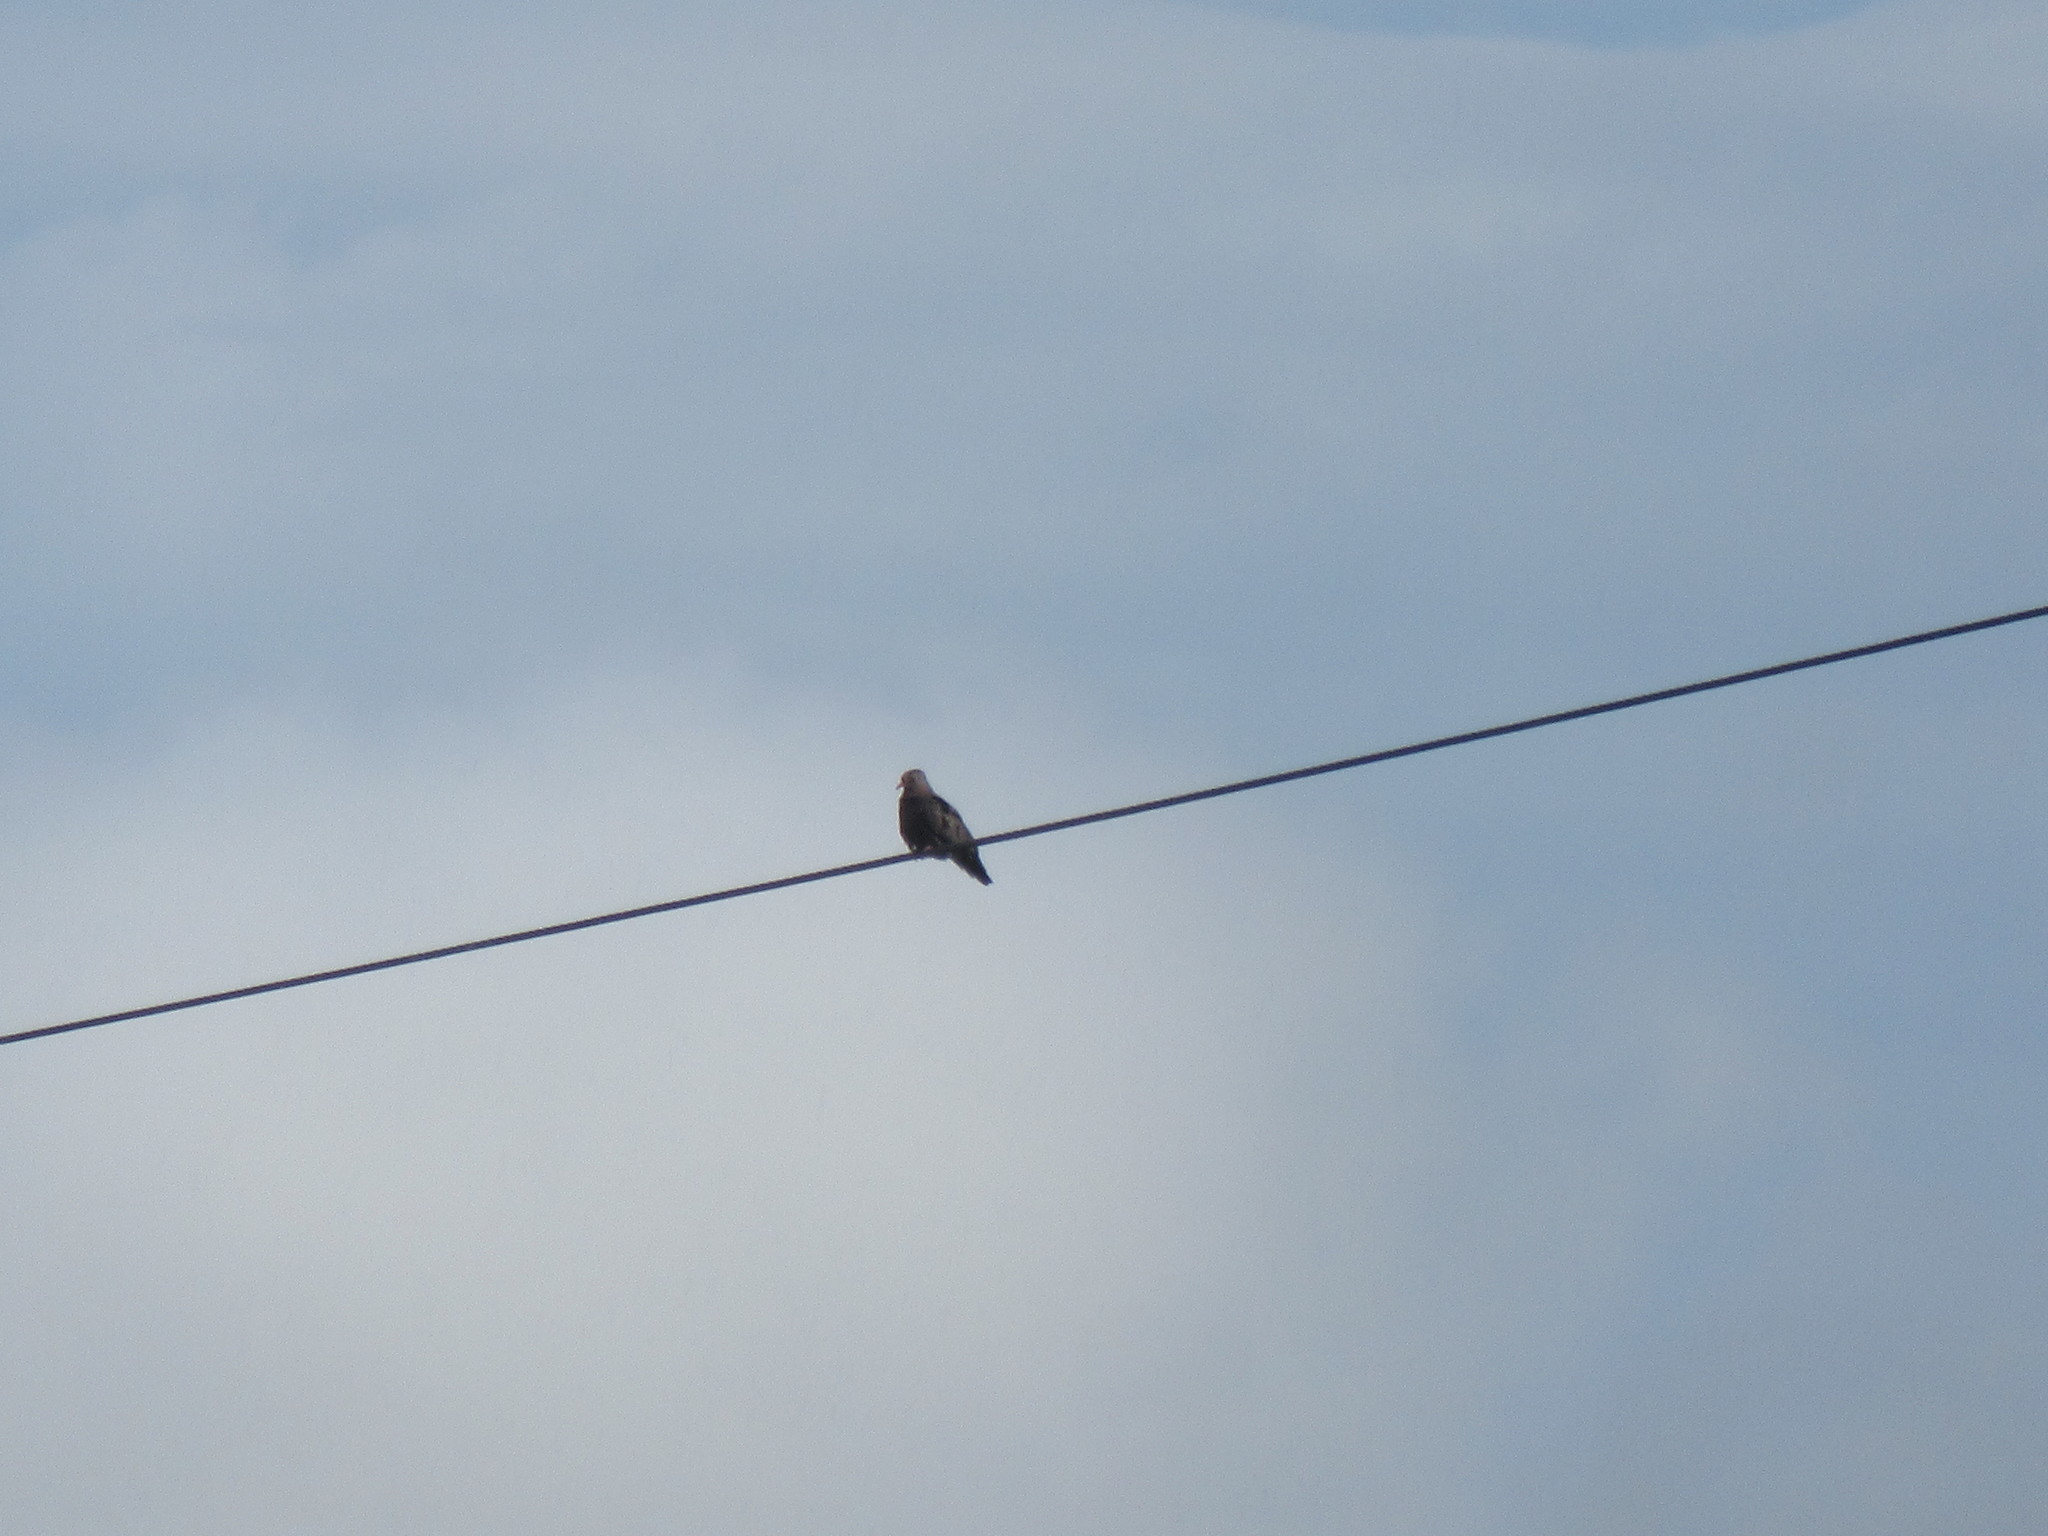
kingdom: Animalia
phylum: Chordata
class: Aves
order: Columbiformes
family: Columbidae
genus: Columbina
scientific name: Columbina passerina
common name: Common ground-dove
